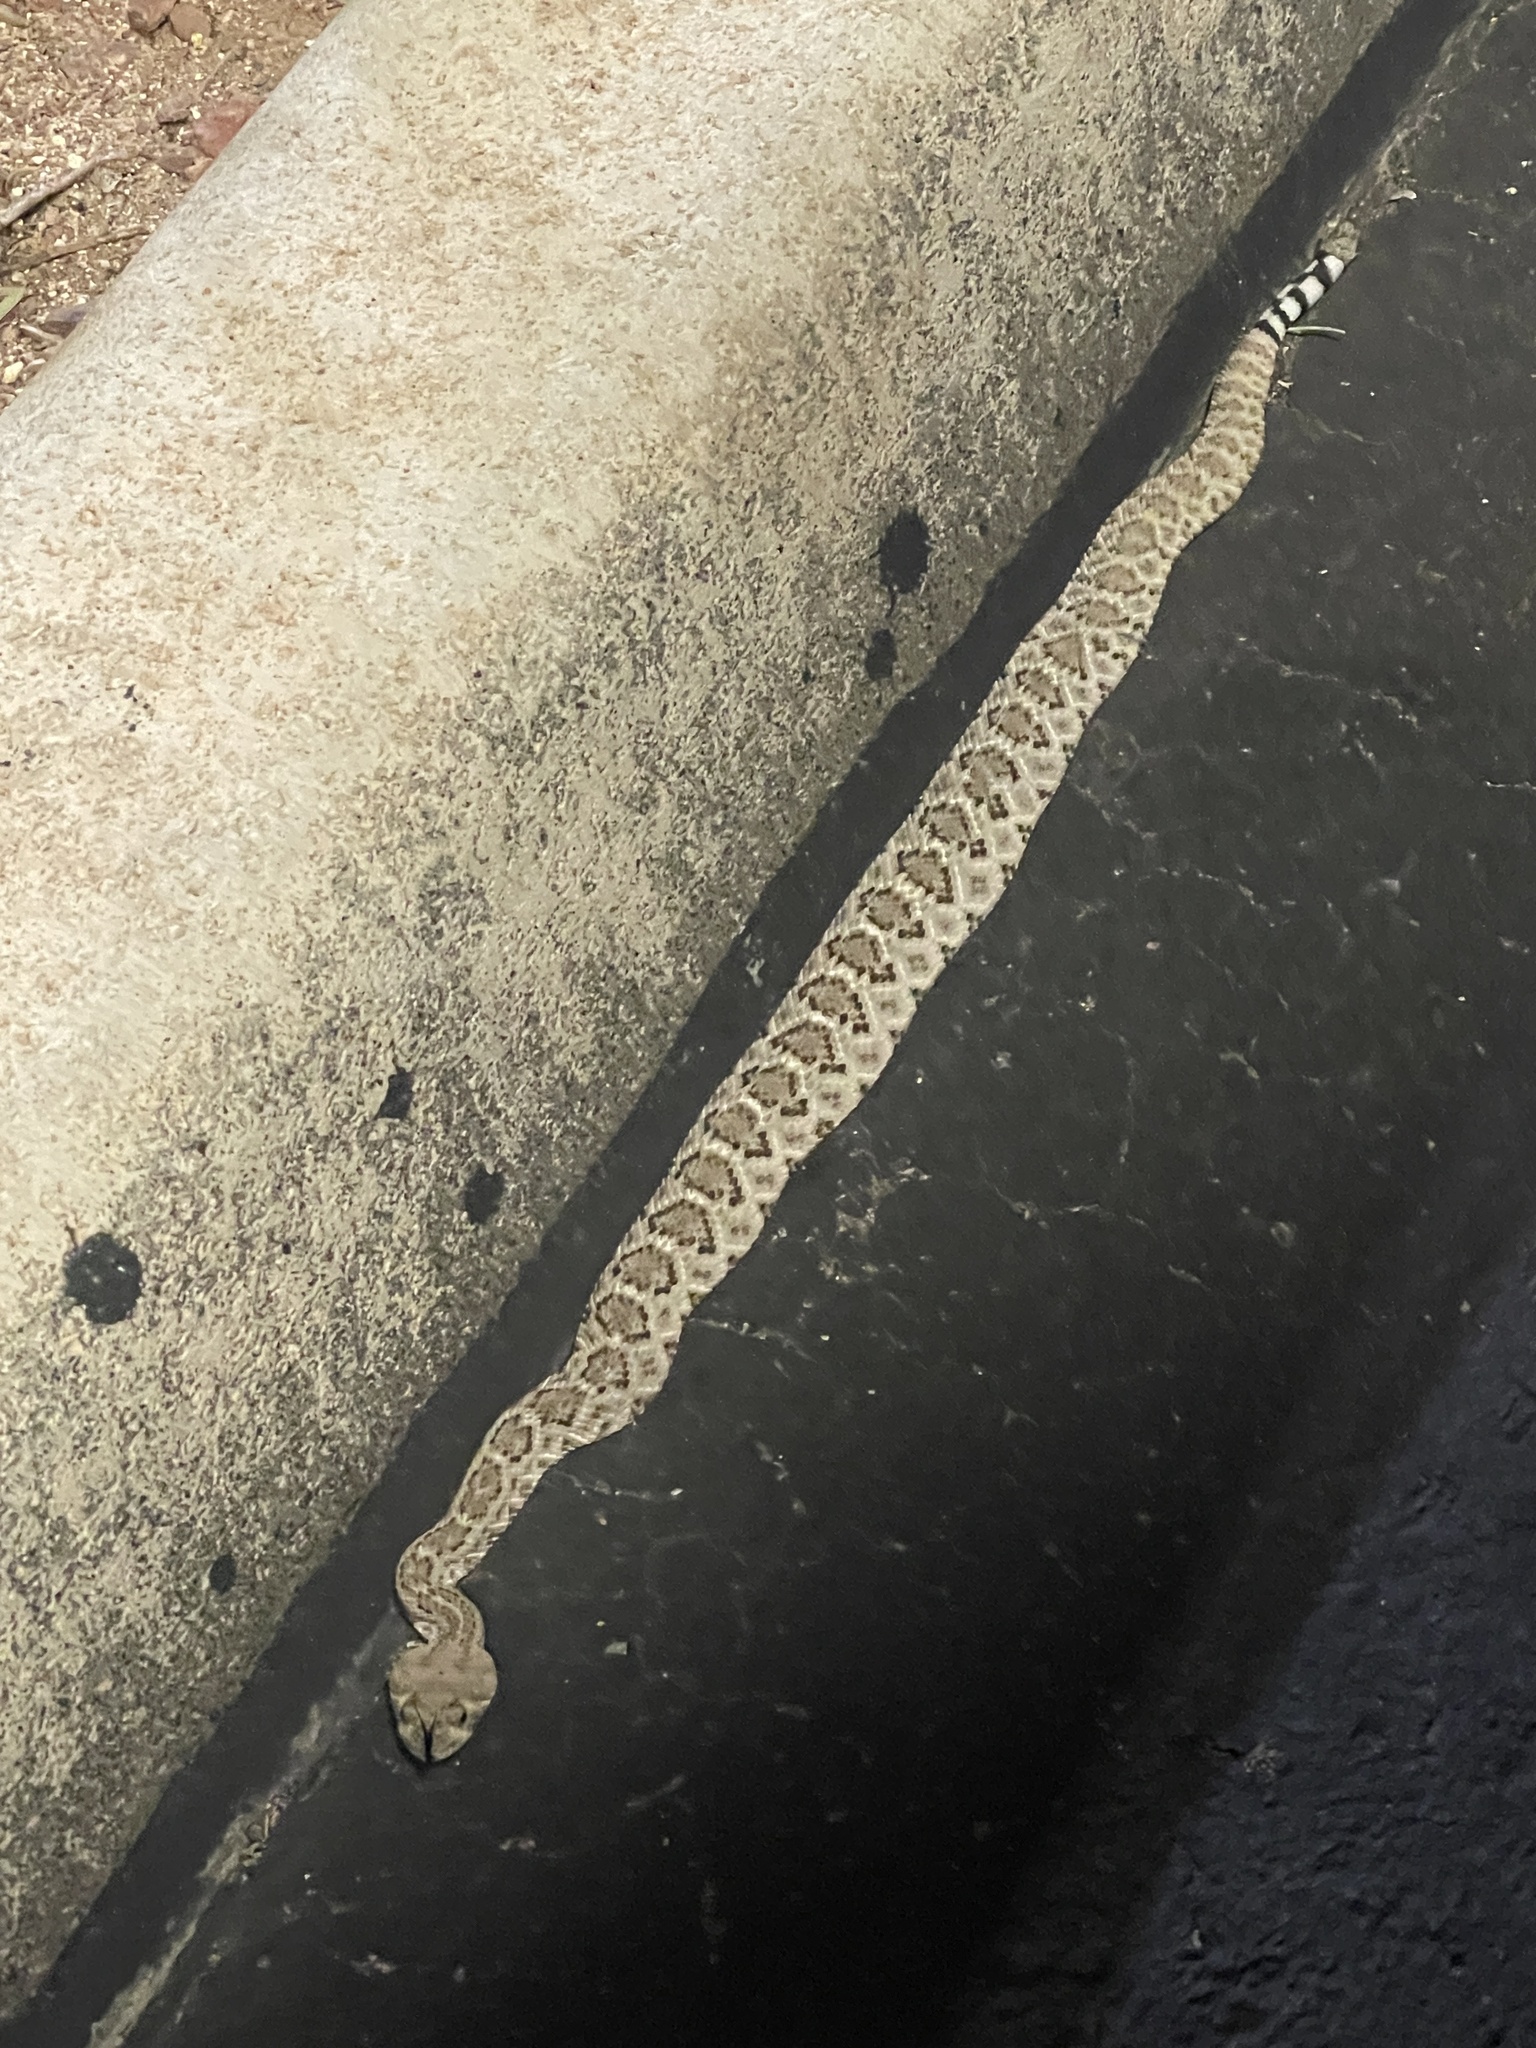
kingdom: Animalia
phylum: Chordata
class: Squamata
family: Viperidae
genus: Crotalus
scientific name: Crotalus atrox
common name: Western diamond-backed rattlesnake
